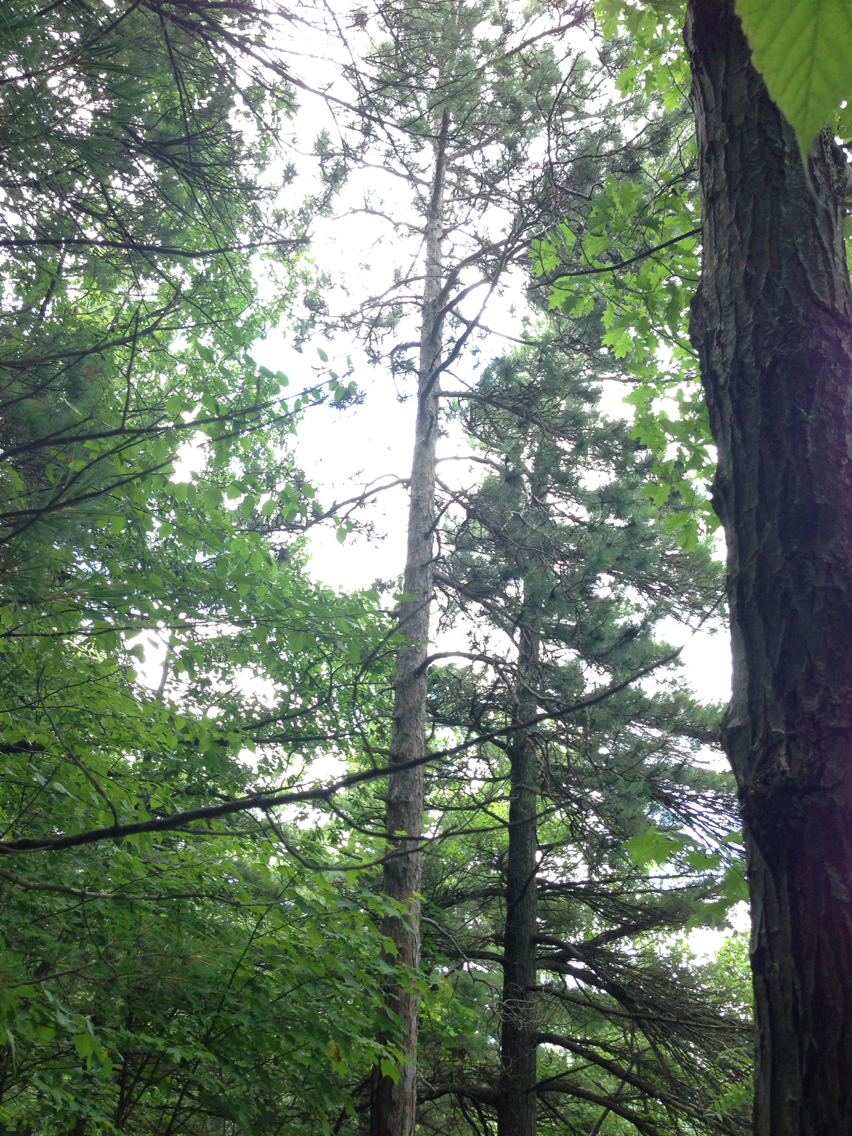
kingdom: Plantae
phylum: Tracheophyta
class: Pinopsida
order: Pinales
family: Pinaceae
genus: Pinus
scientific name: Pinus resinosa
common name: Norway pine
